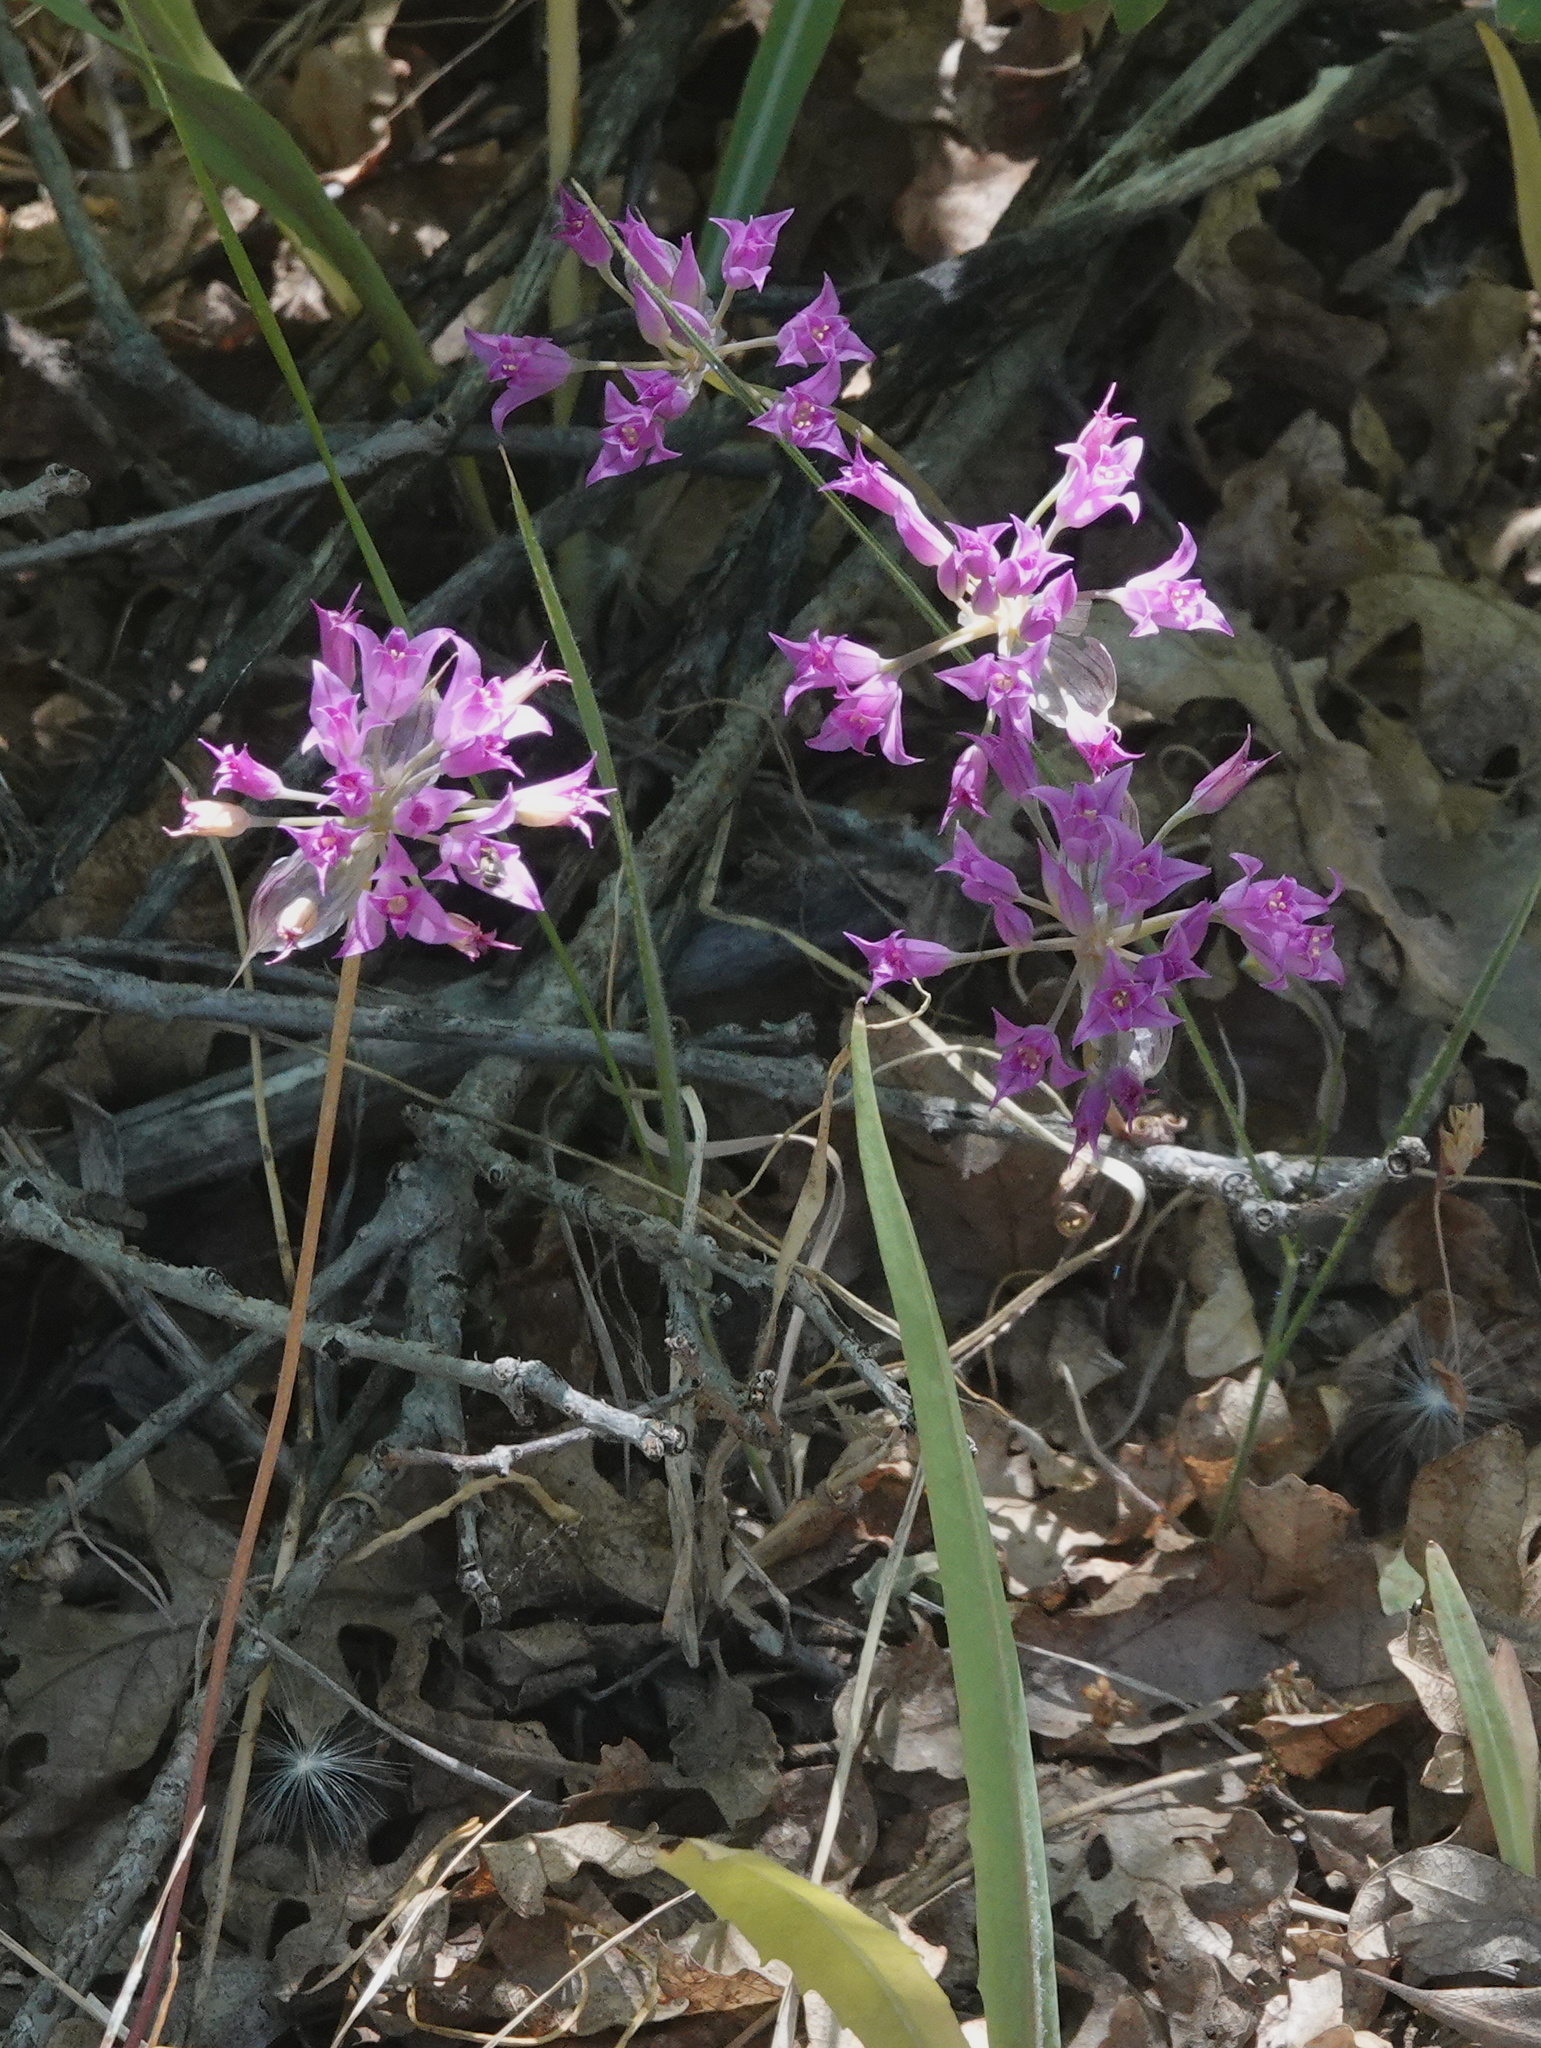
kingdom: Plantae
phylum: Tracheophyta
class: Liliopsida
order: Asparagales
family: Amaryllidaceae
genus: Allium
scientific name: Allium acuminatum
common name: Hooker's onion
